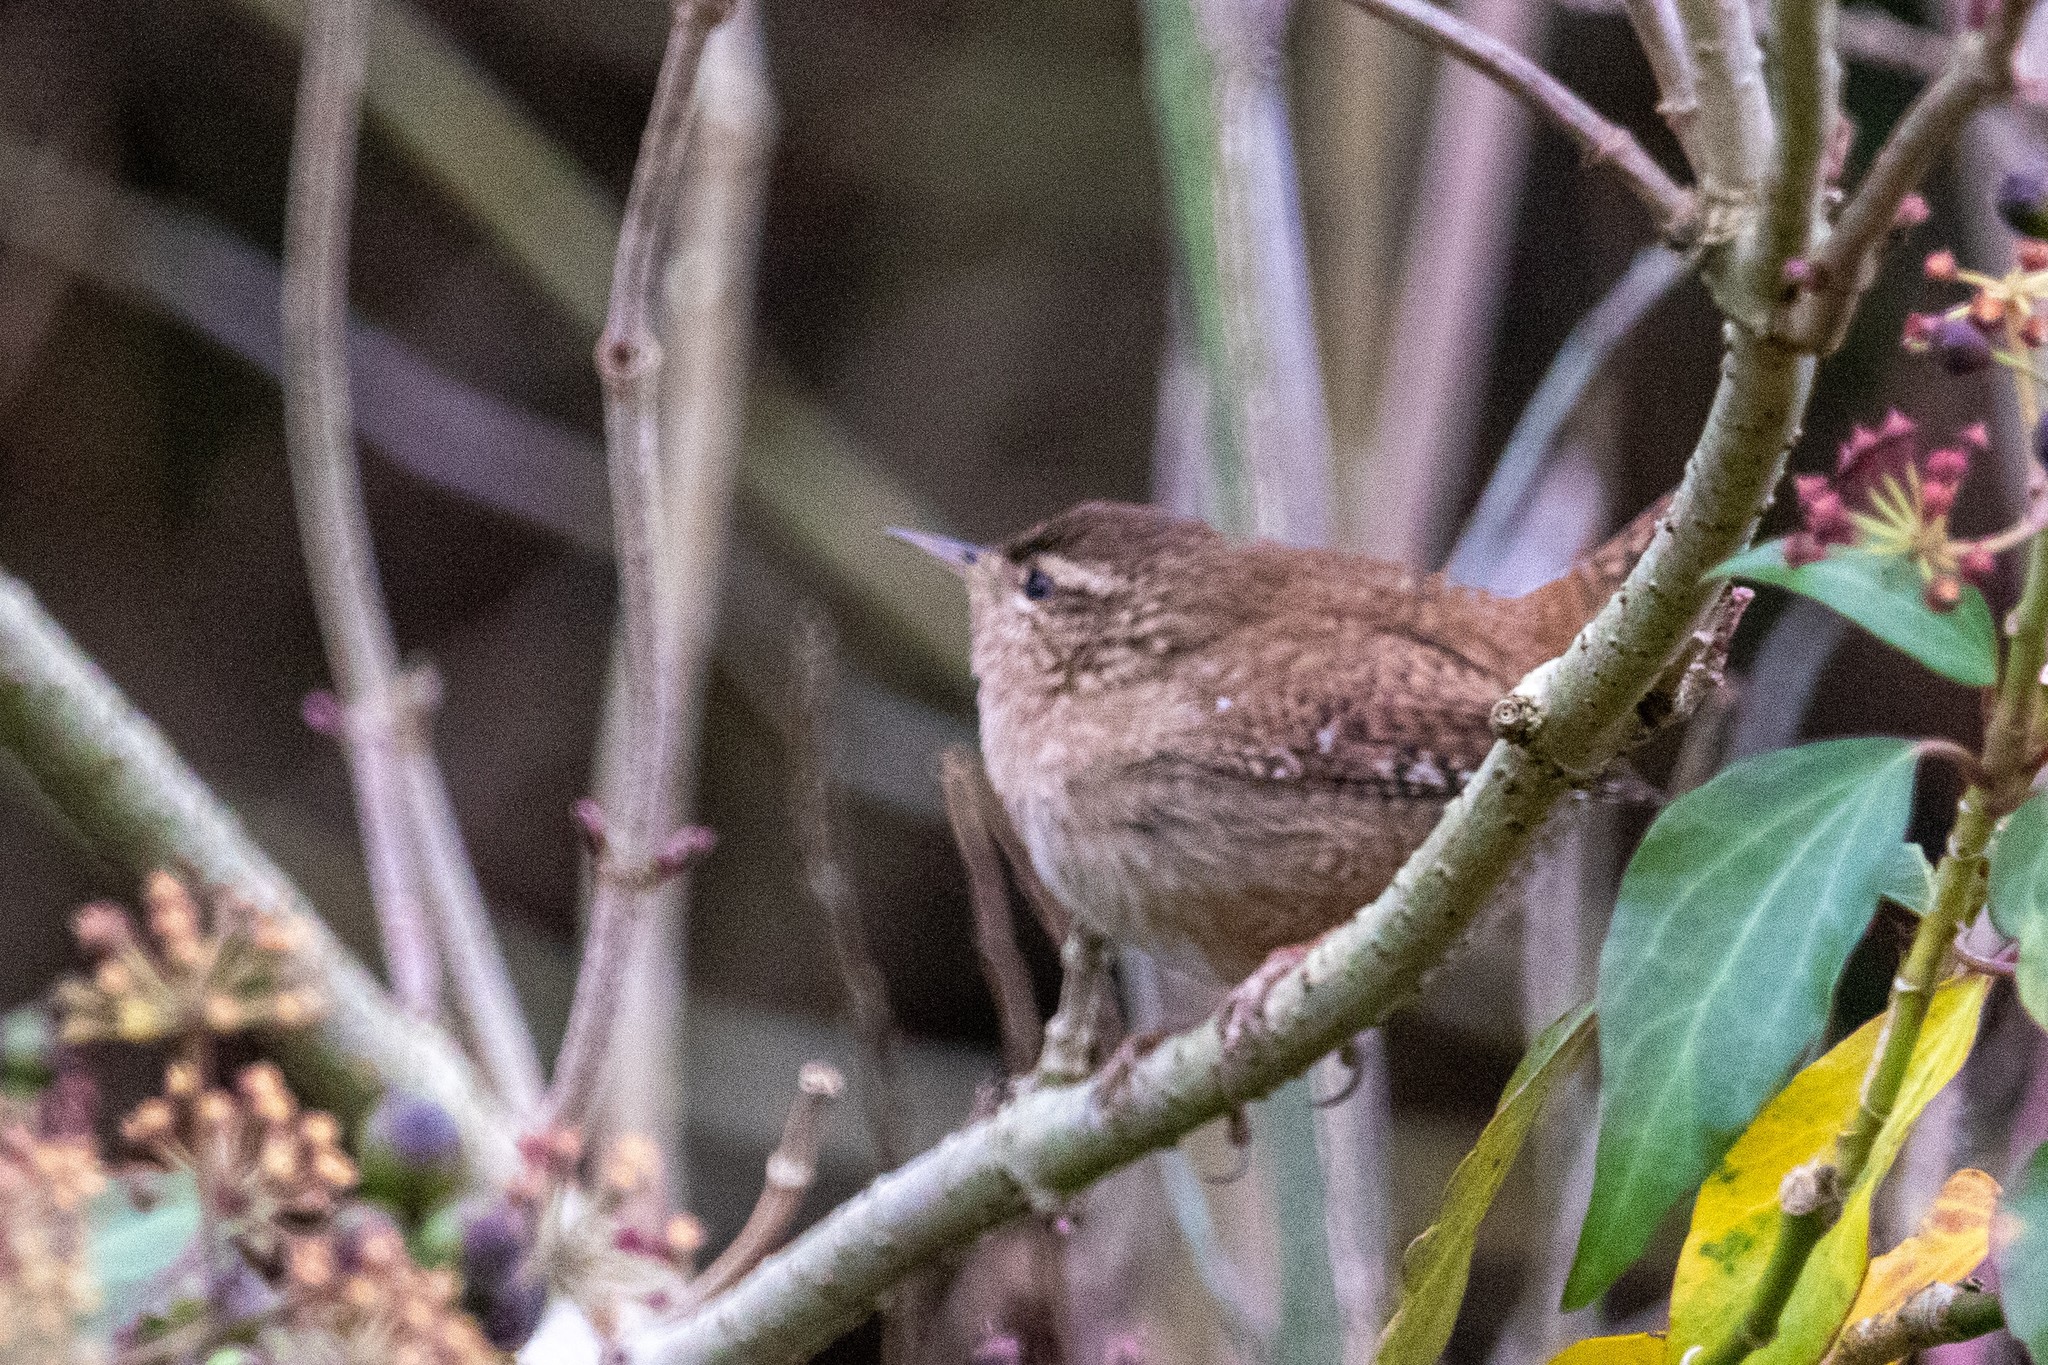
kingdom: Animalia
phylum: Chordata
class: Aves
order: Passeriformes
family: Troglodytidae
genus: Troglodytes
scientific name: Troglodytes troglodytes
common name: Eurasian wren
